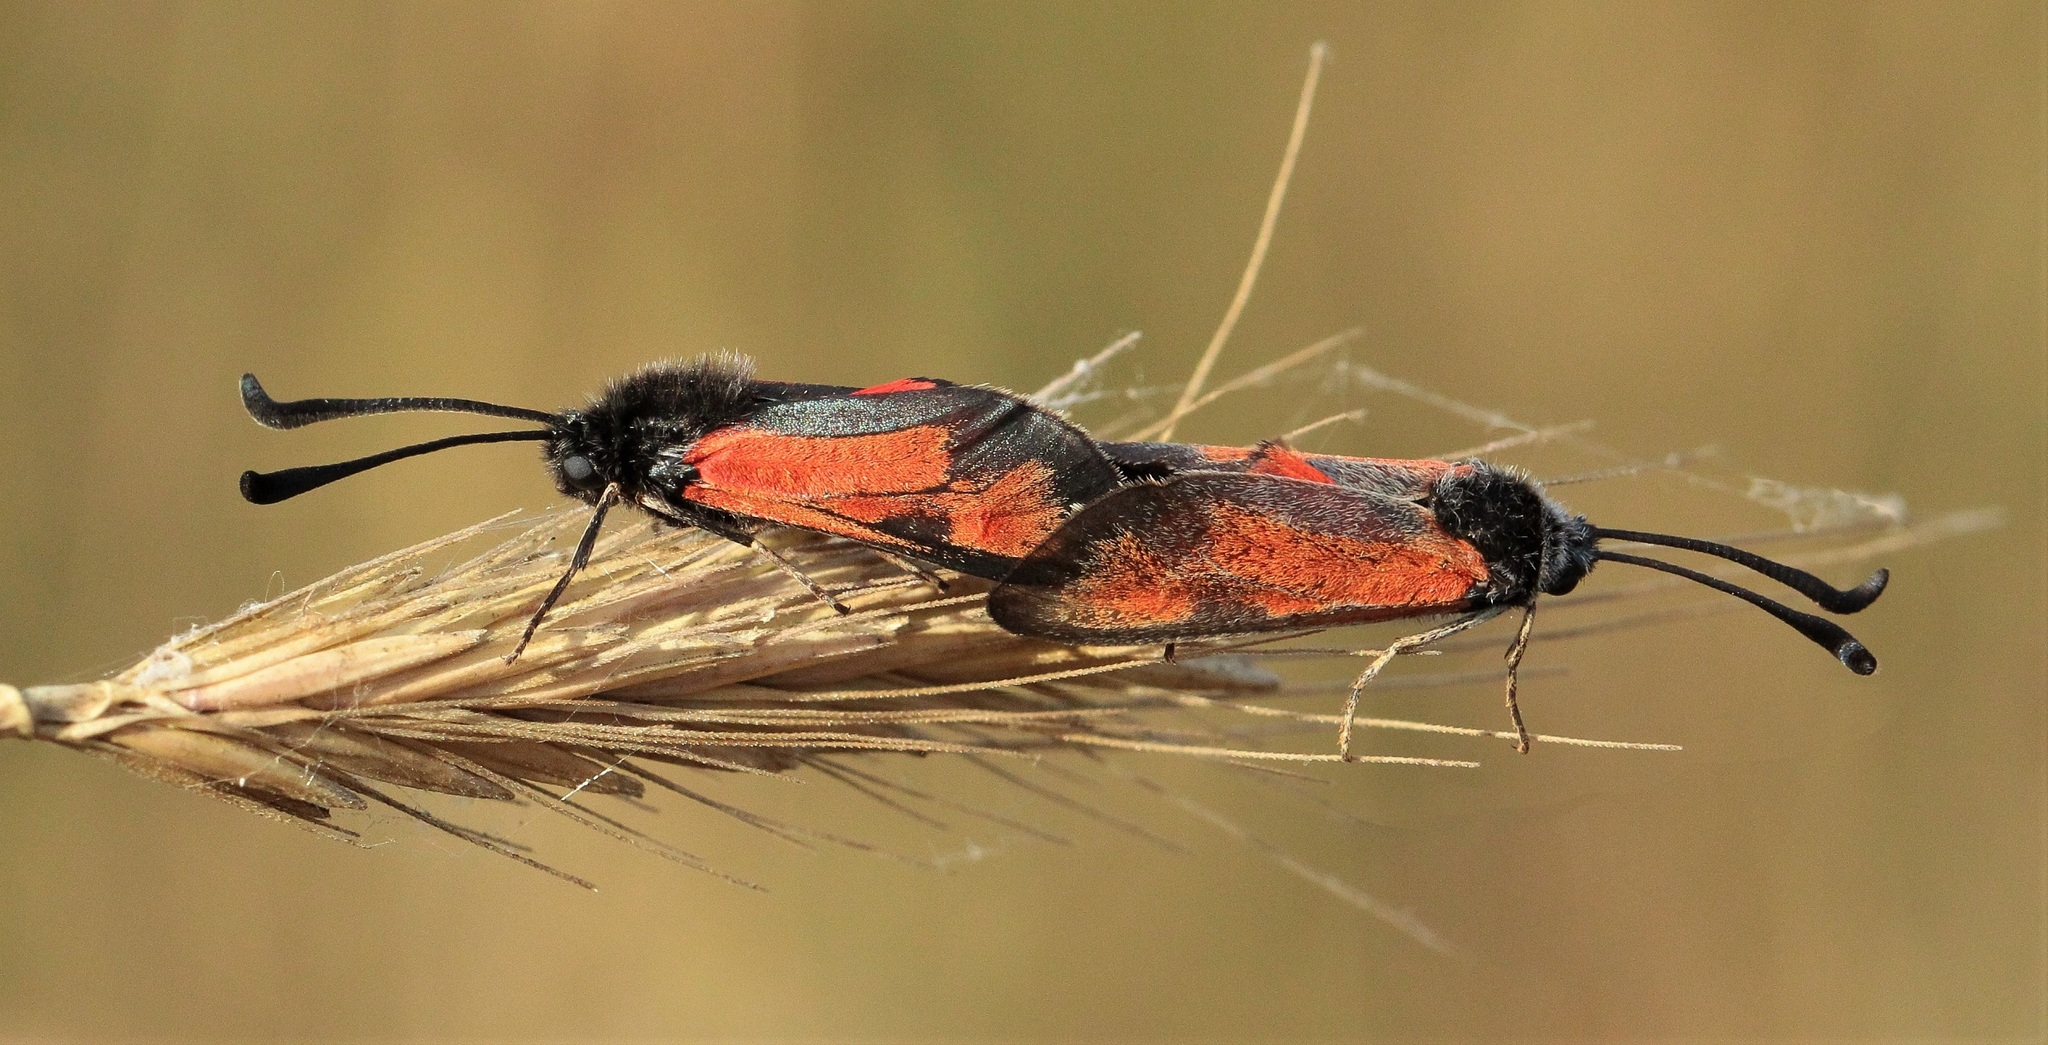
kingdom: Animalia
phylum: Arthropoda
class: Insecta
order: Lepidoptera
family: Zygaenidae
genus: Zygaena
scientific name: Zygaena punctum
